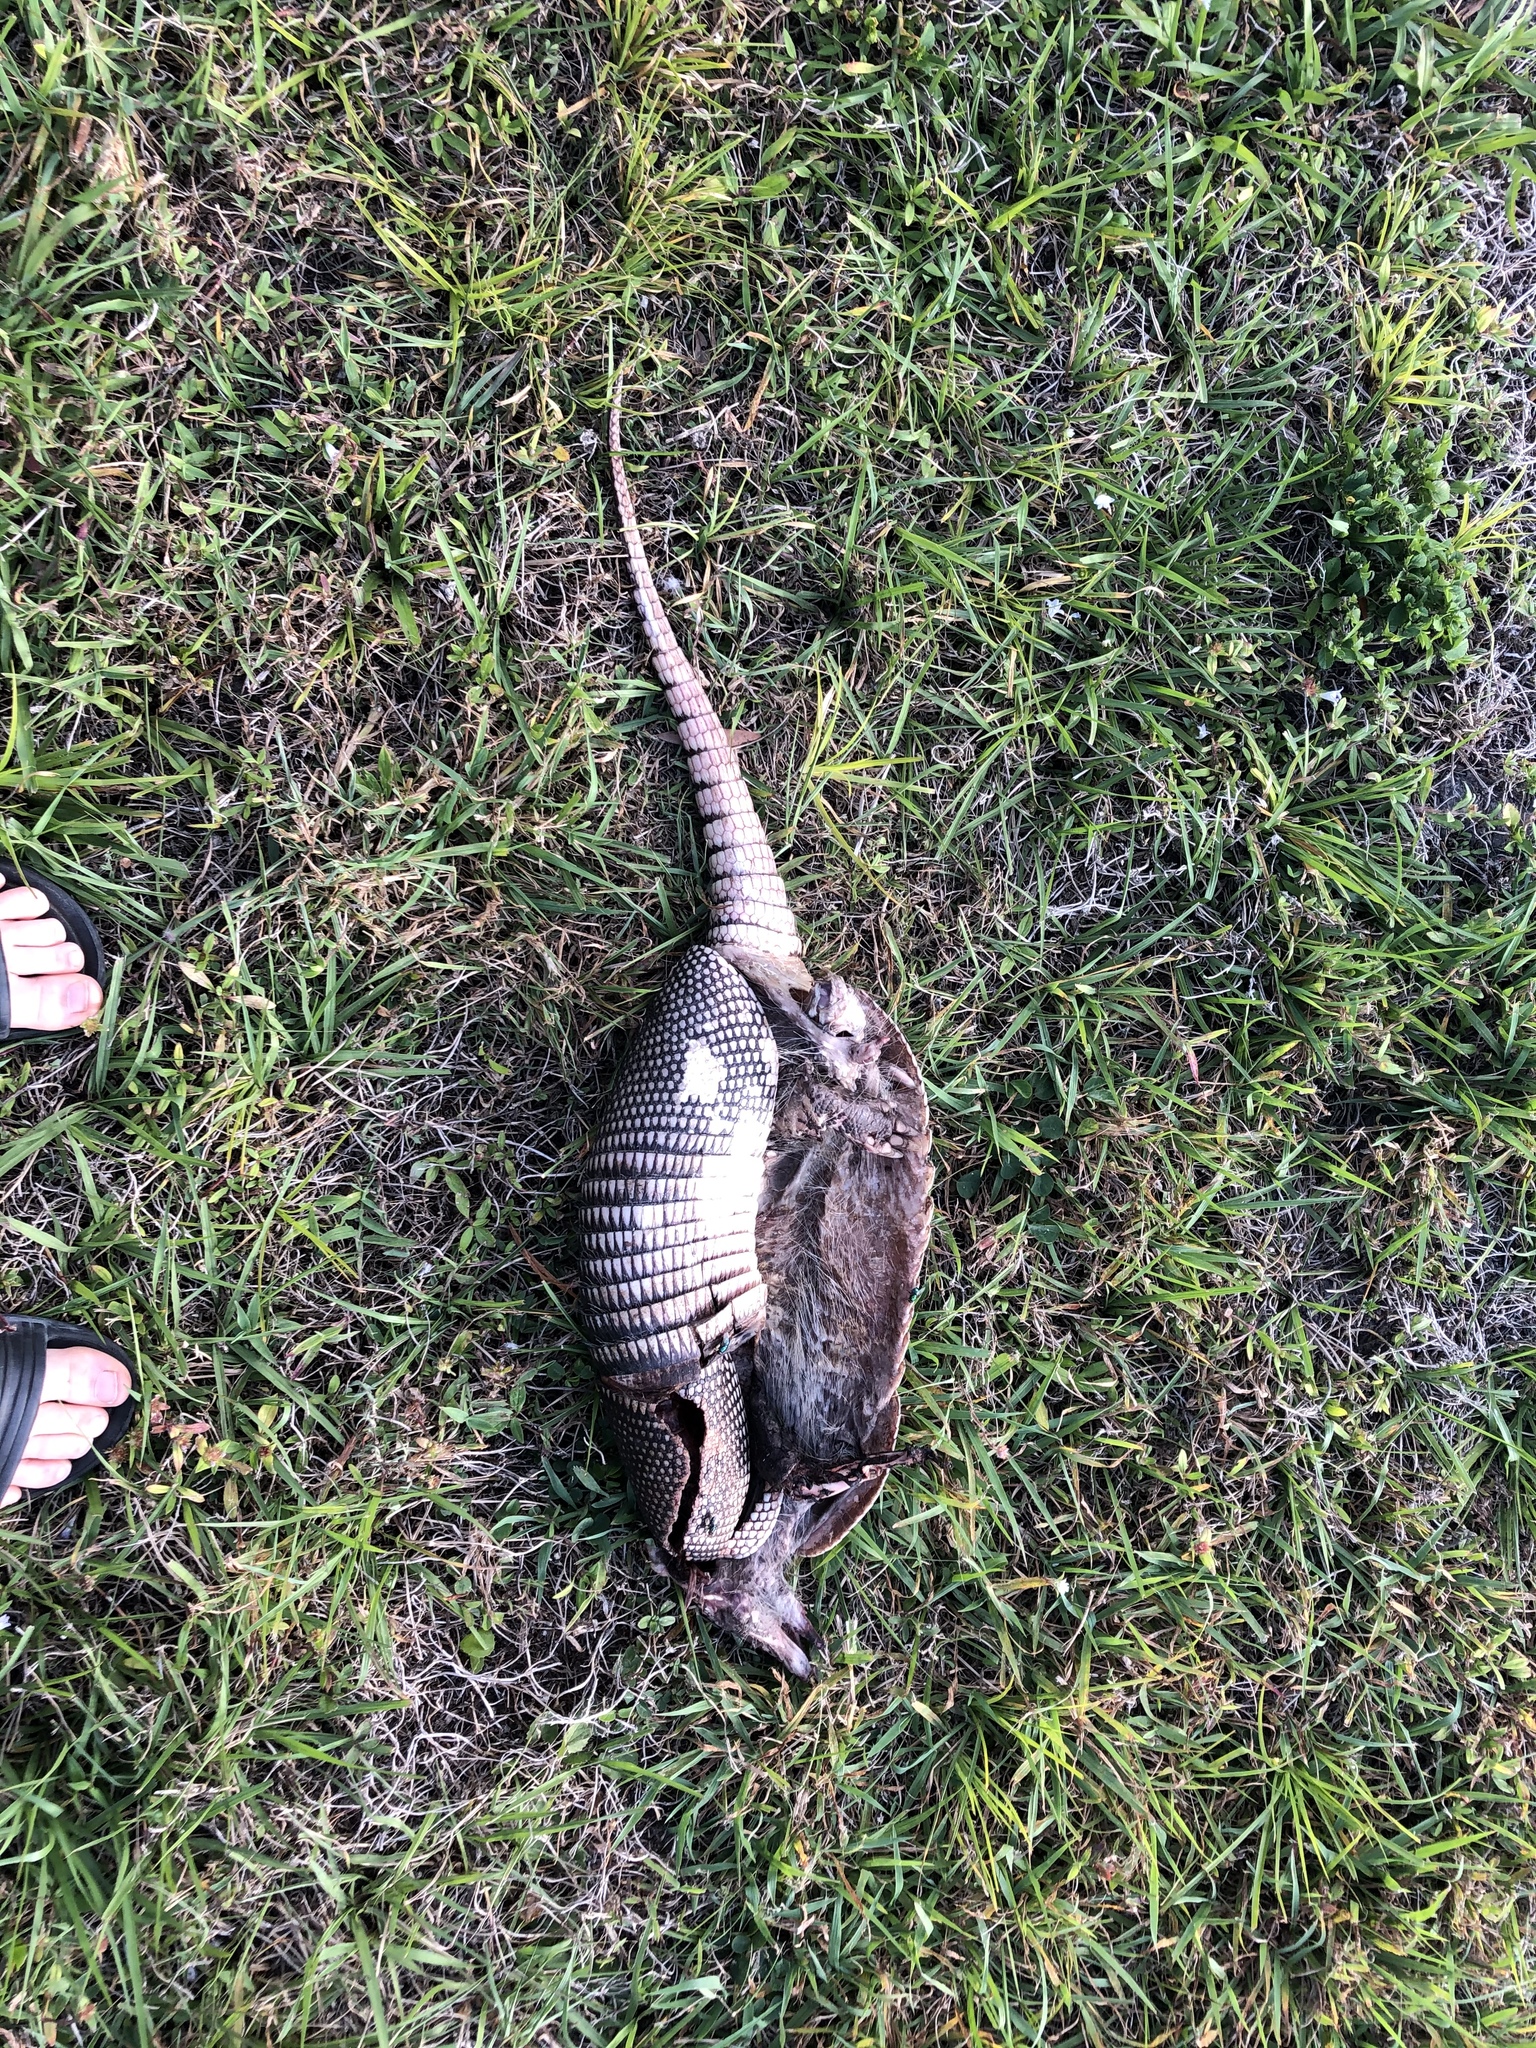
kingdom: Animalia
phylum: Chordata
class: Mammalia
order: Cingulata
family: Dasypodidae
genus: Dasypus
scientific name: Dasypus novemcinctus
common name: Nine-banded armadillo
